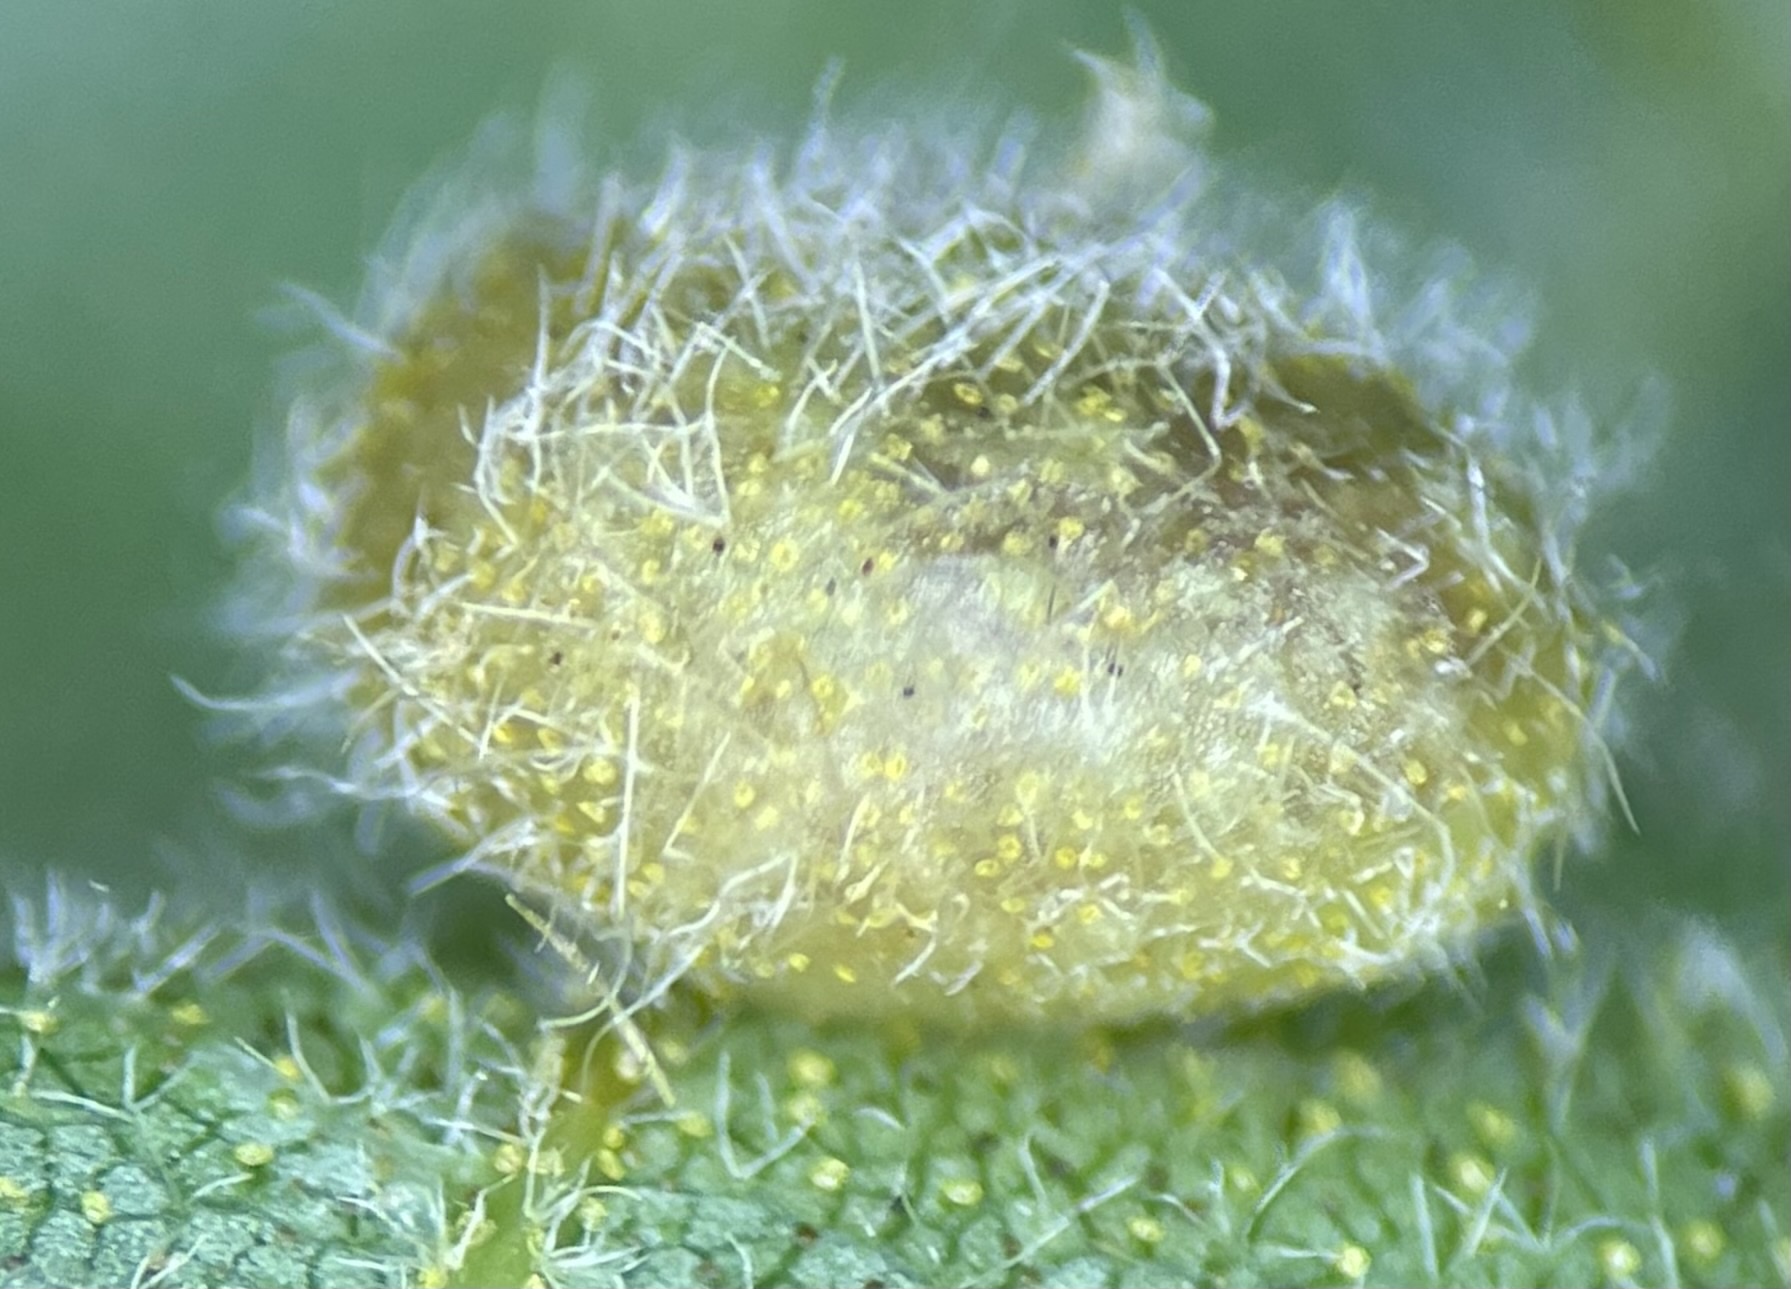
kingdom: Animalia
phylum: Arthropoda
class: Insecta
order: Diptera
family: Cecidomyiidae
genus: Caryomyia
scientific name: Caryomyia thompsoni
